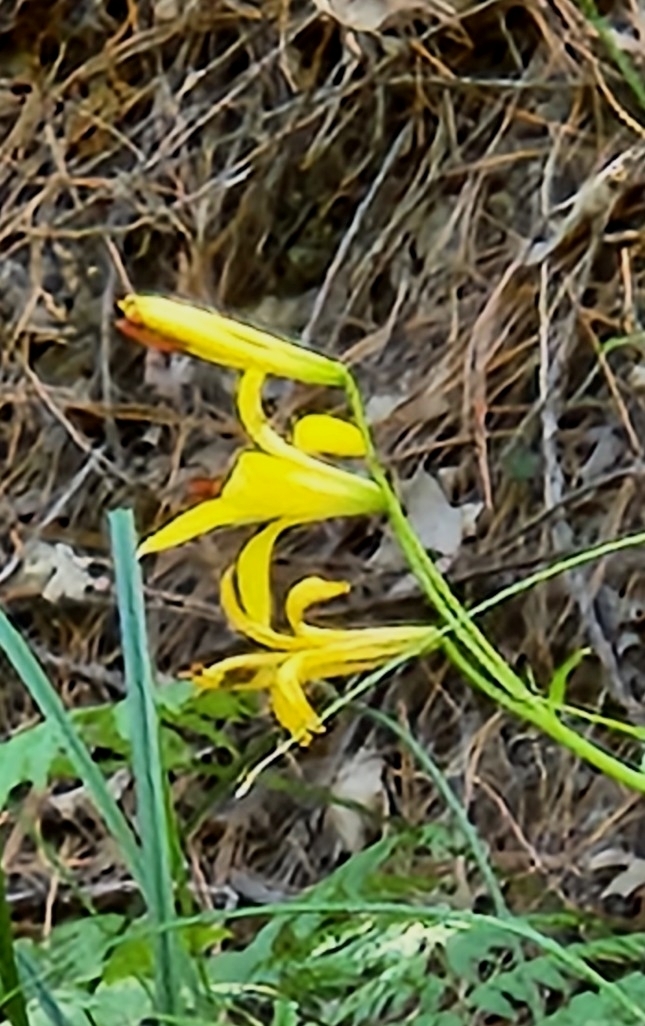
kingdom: Plantae
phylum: Tracheophyta
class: Liliopsida
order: Liliales
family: Liliaceae
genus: Lilium
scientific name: Lilium parryi
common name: Lemon lily
